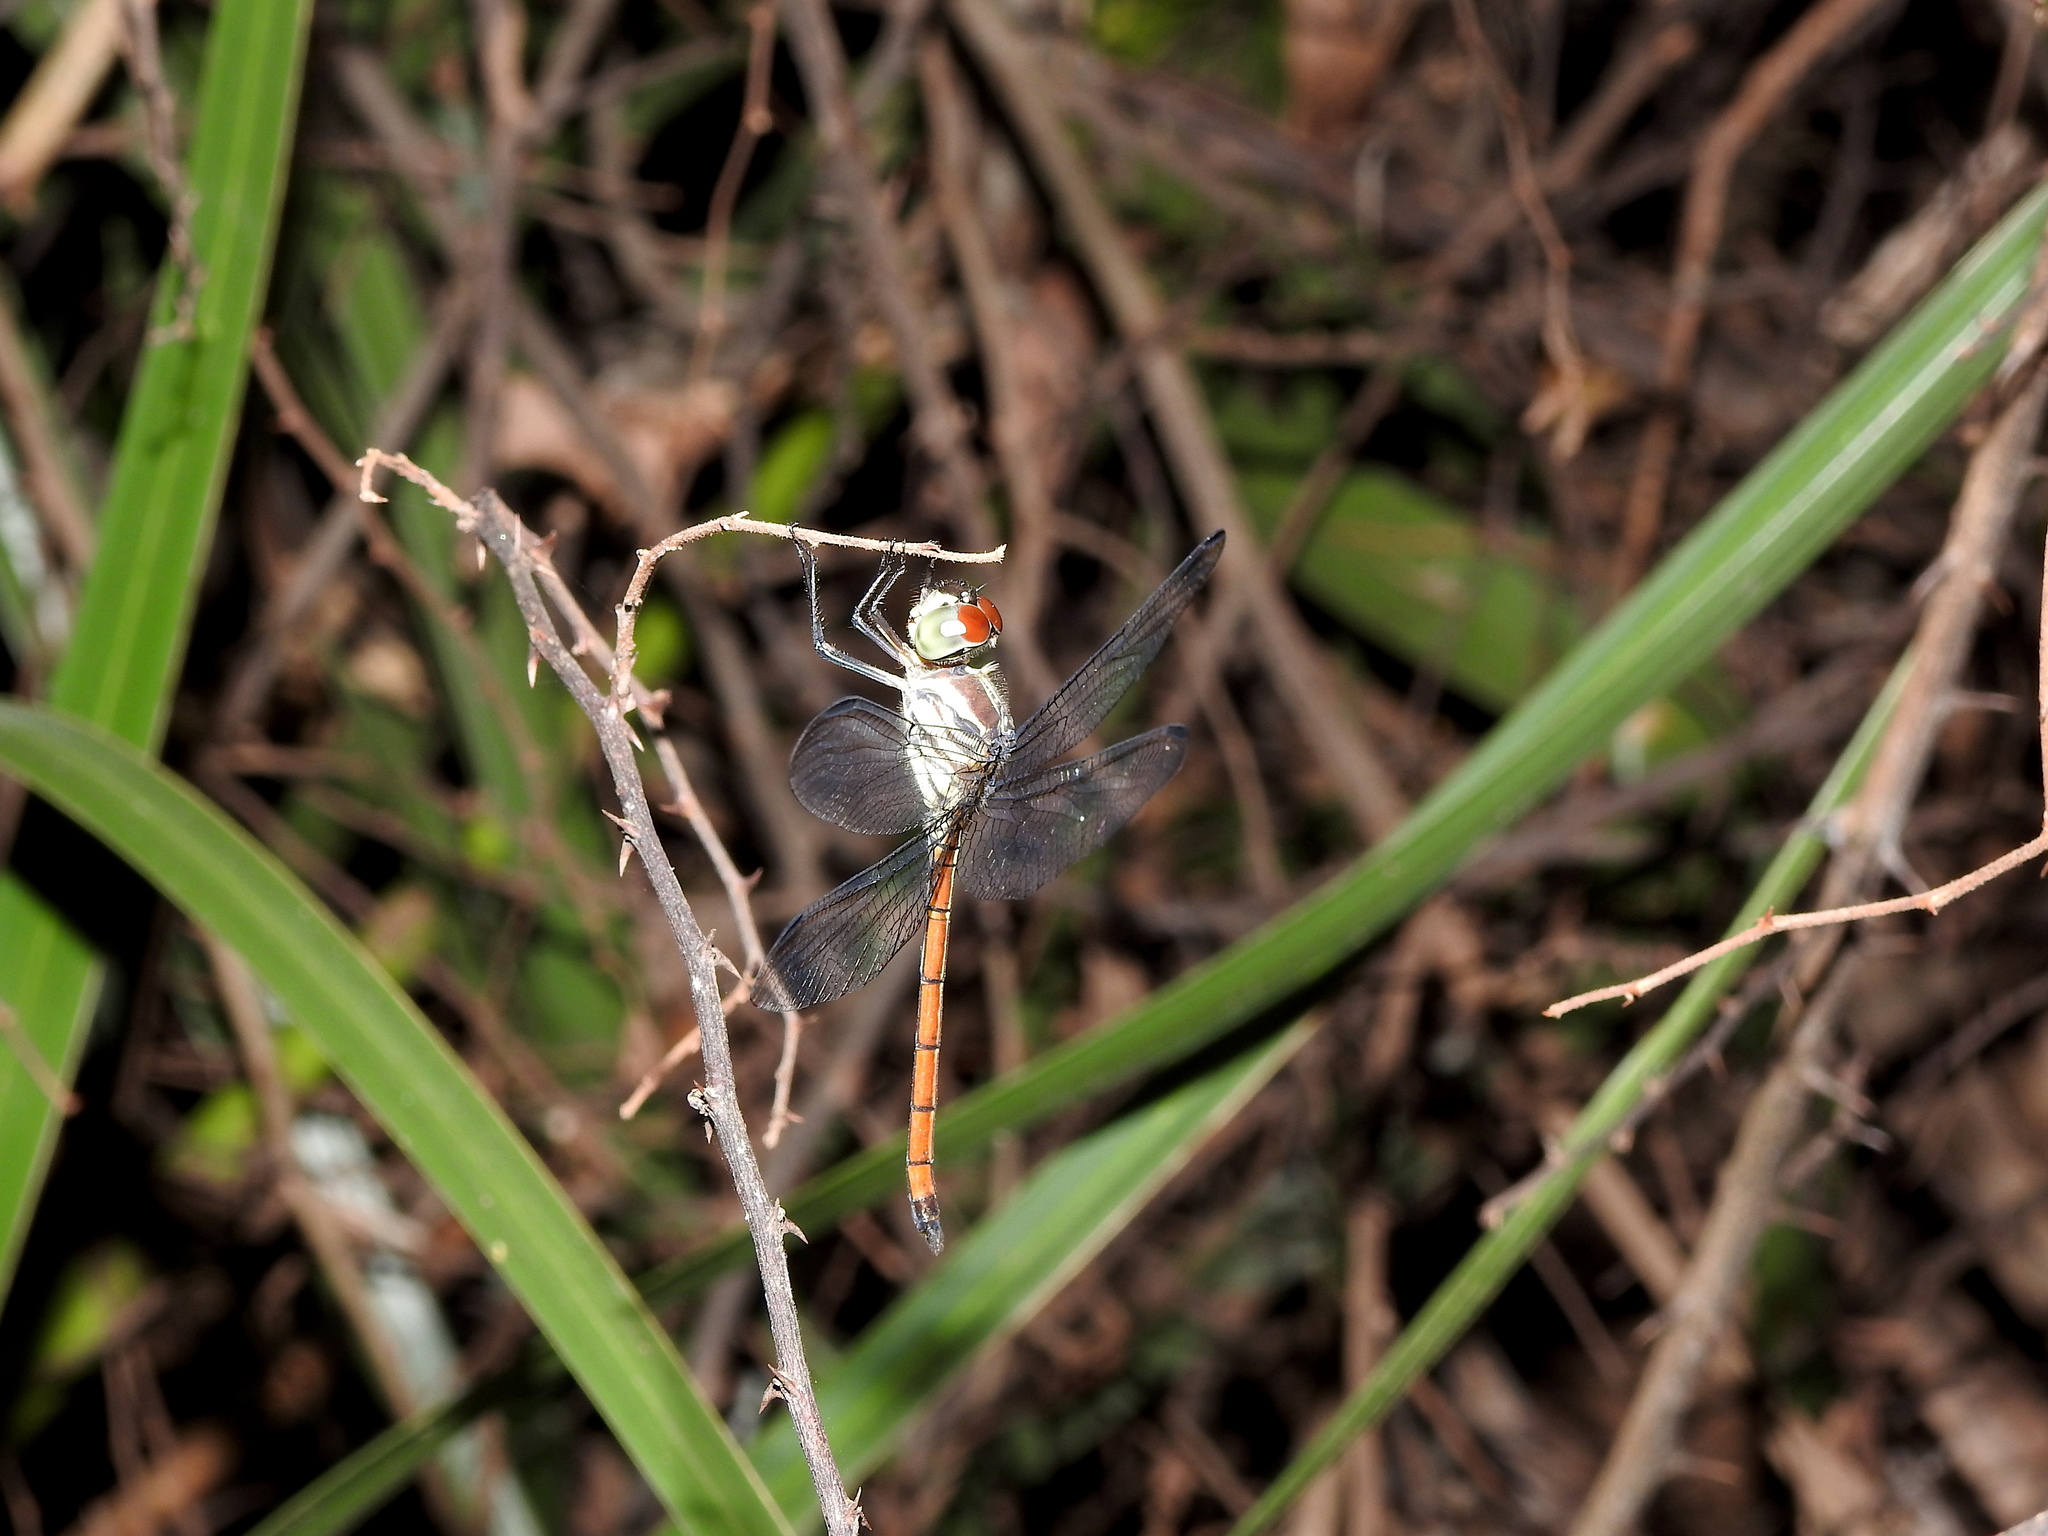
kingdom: Animalia
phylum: Arthropoda
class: Insecta
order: Odonata
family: Libellulidae
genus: Lathrecista
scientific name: Lathrecista asiatica
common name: Scarlet grenadier
